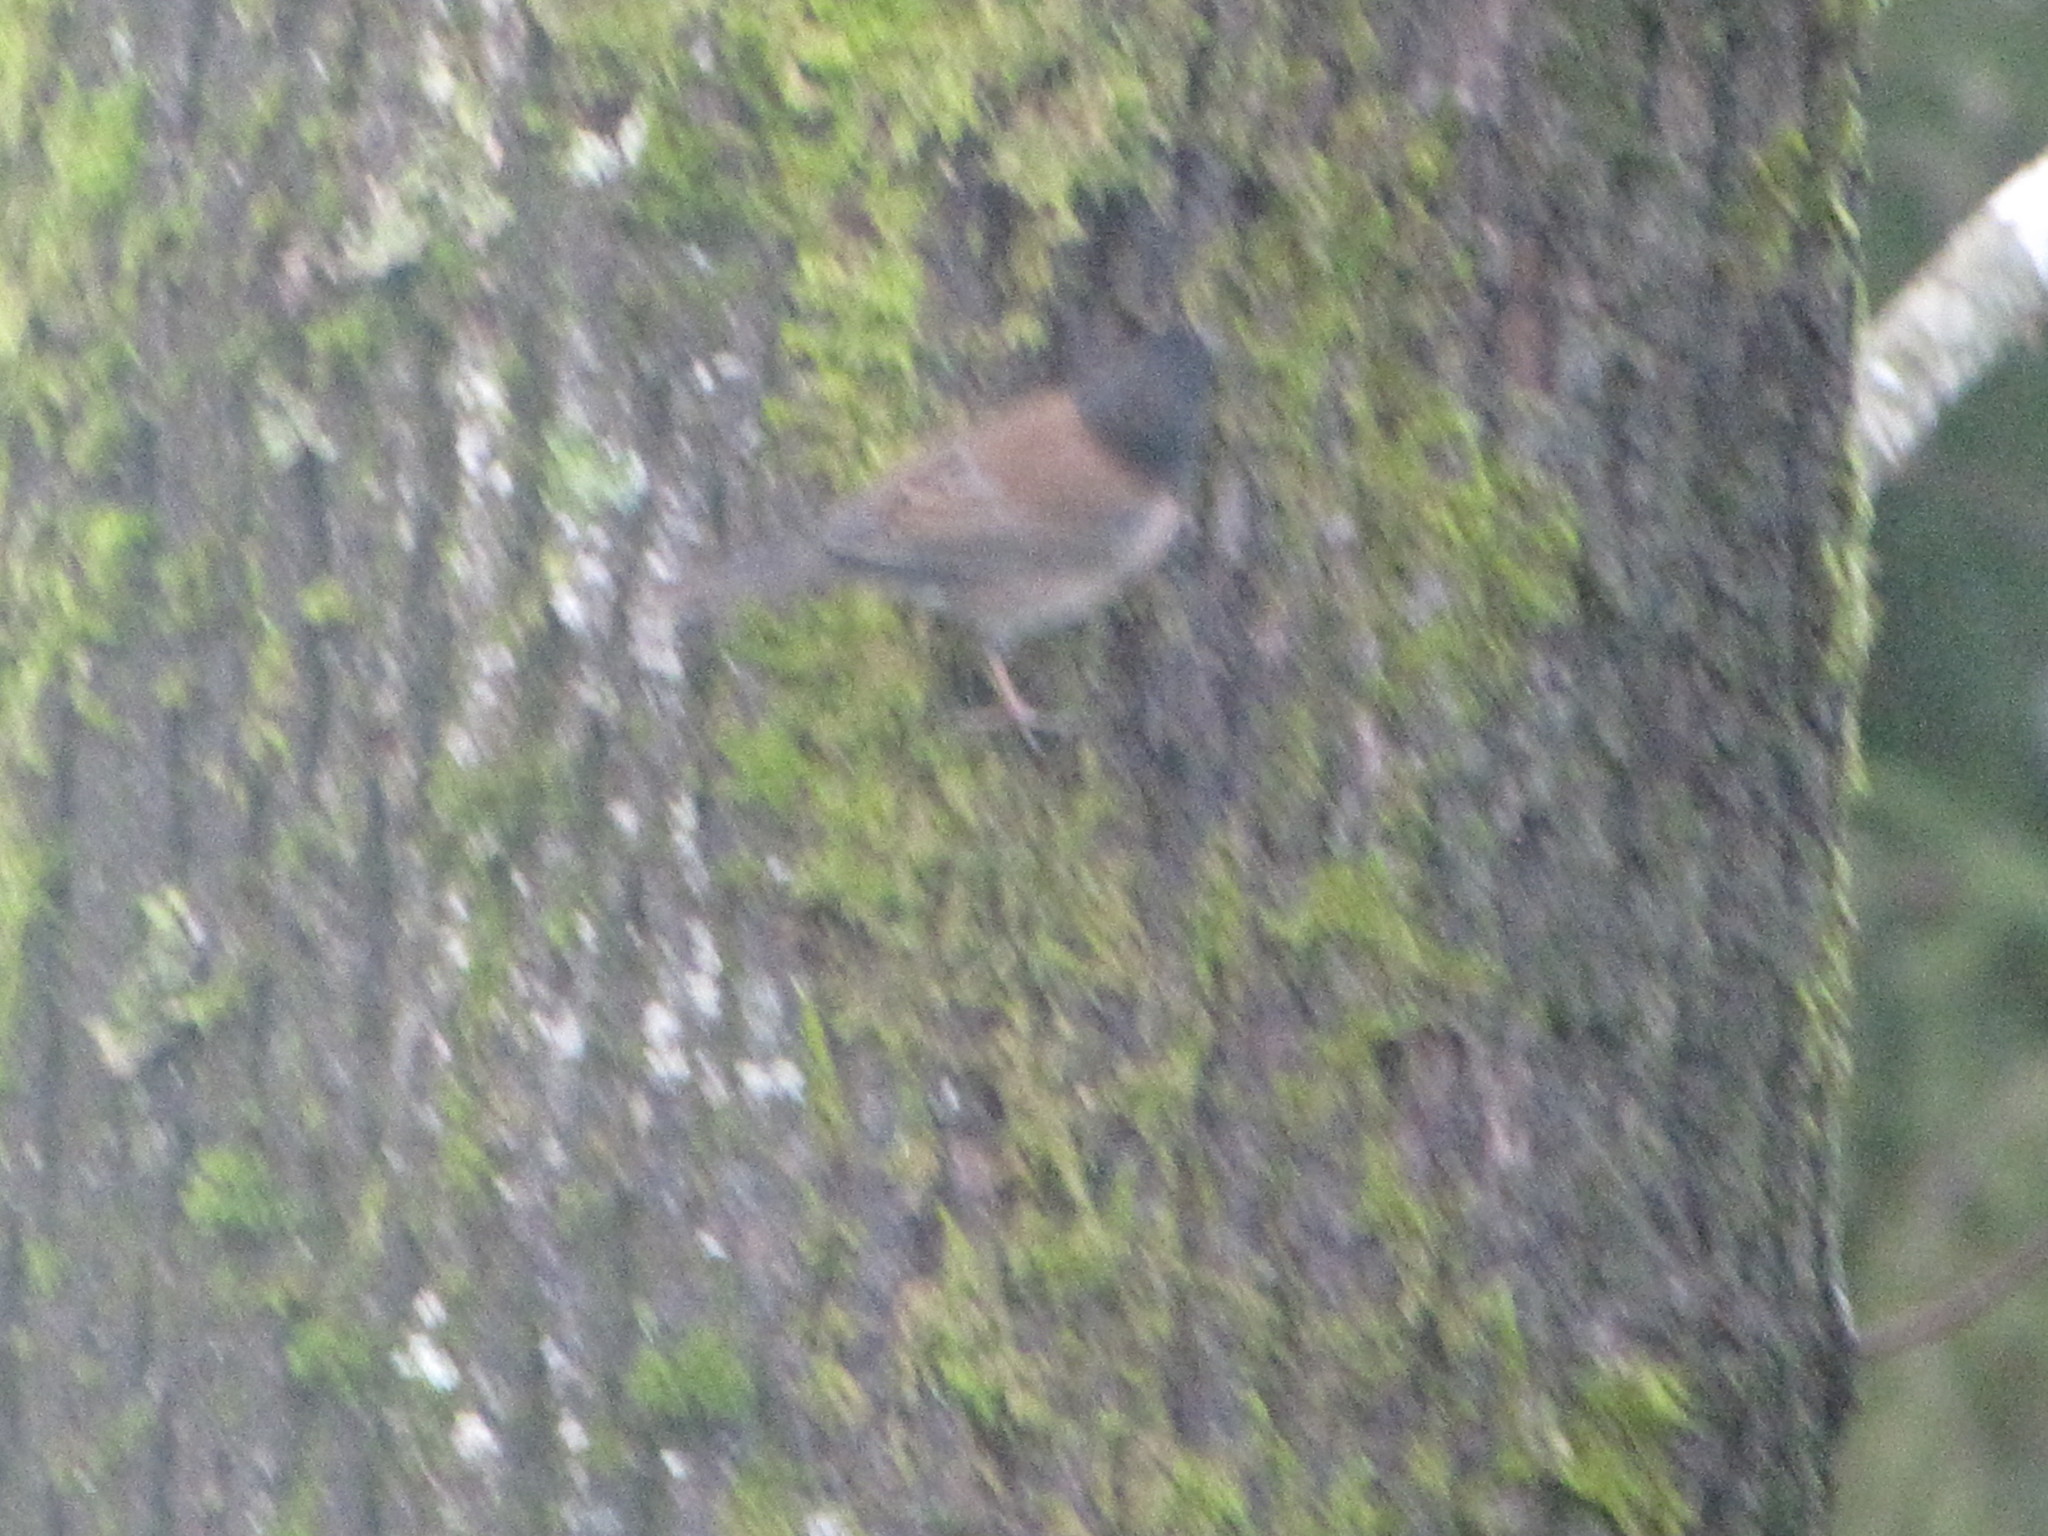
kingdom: Animalia
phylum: Chordata
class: Aves
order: Passeriformes
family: Passerellidae
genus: Junco
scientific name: Junco hyemalis
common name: Dark-eyed junco
